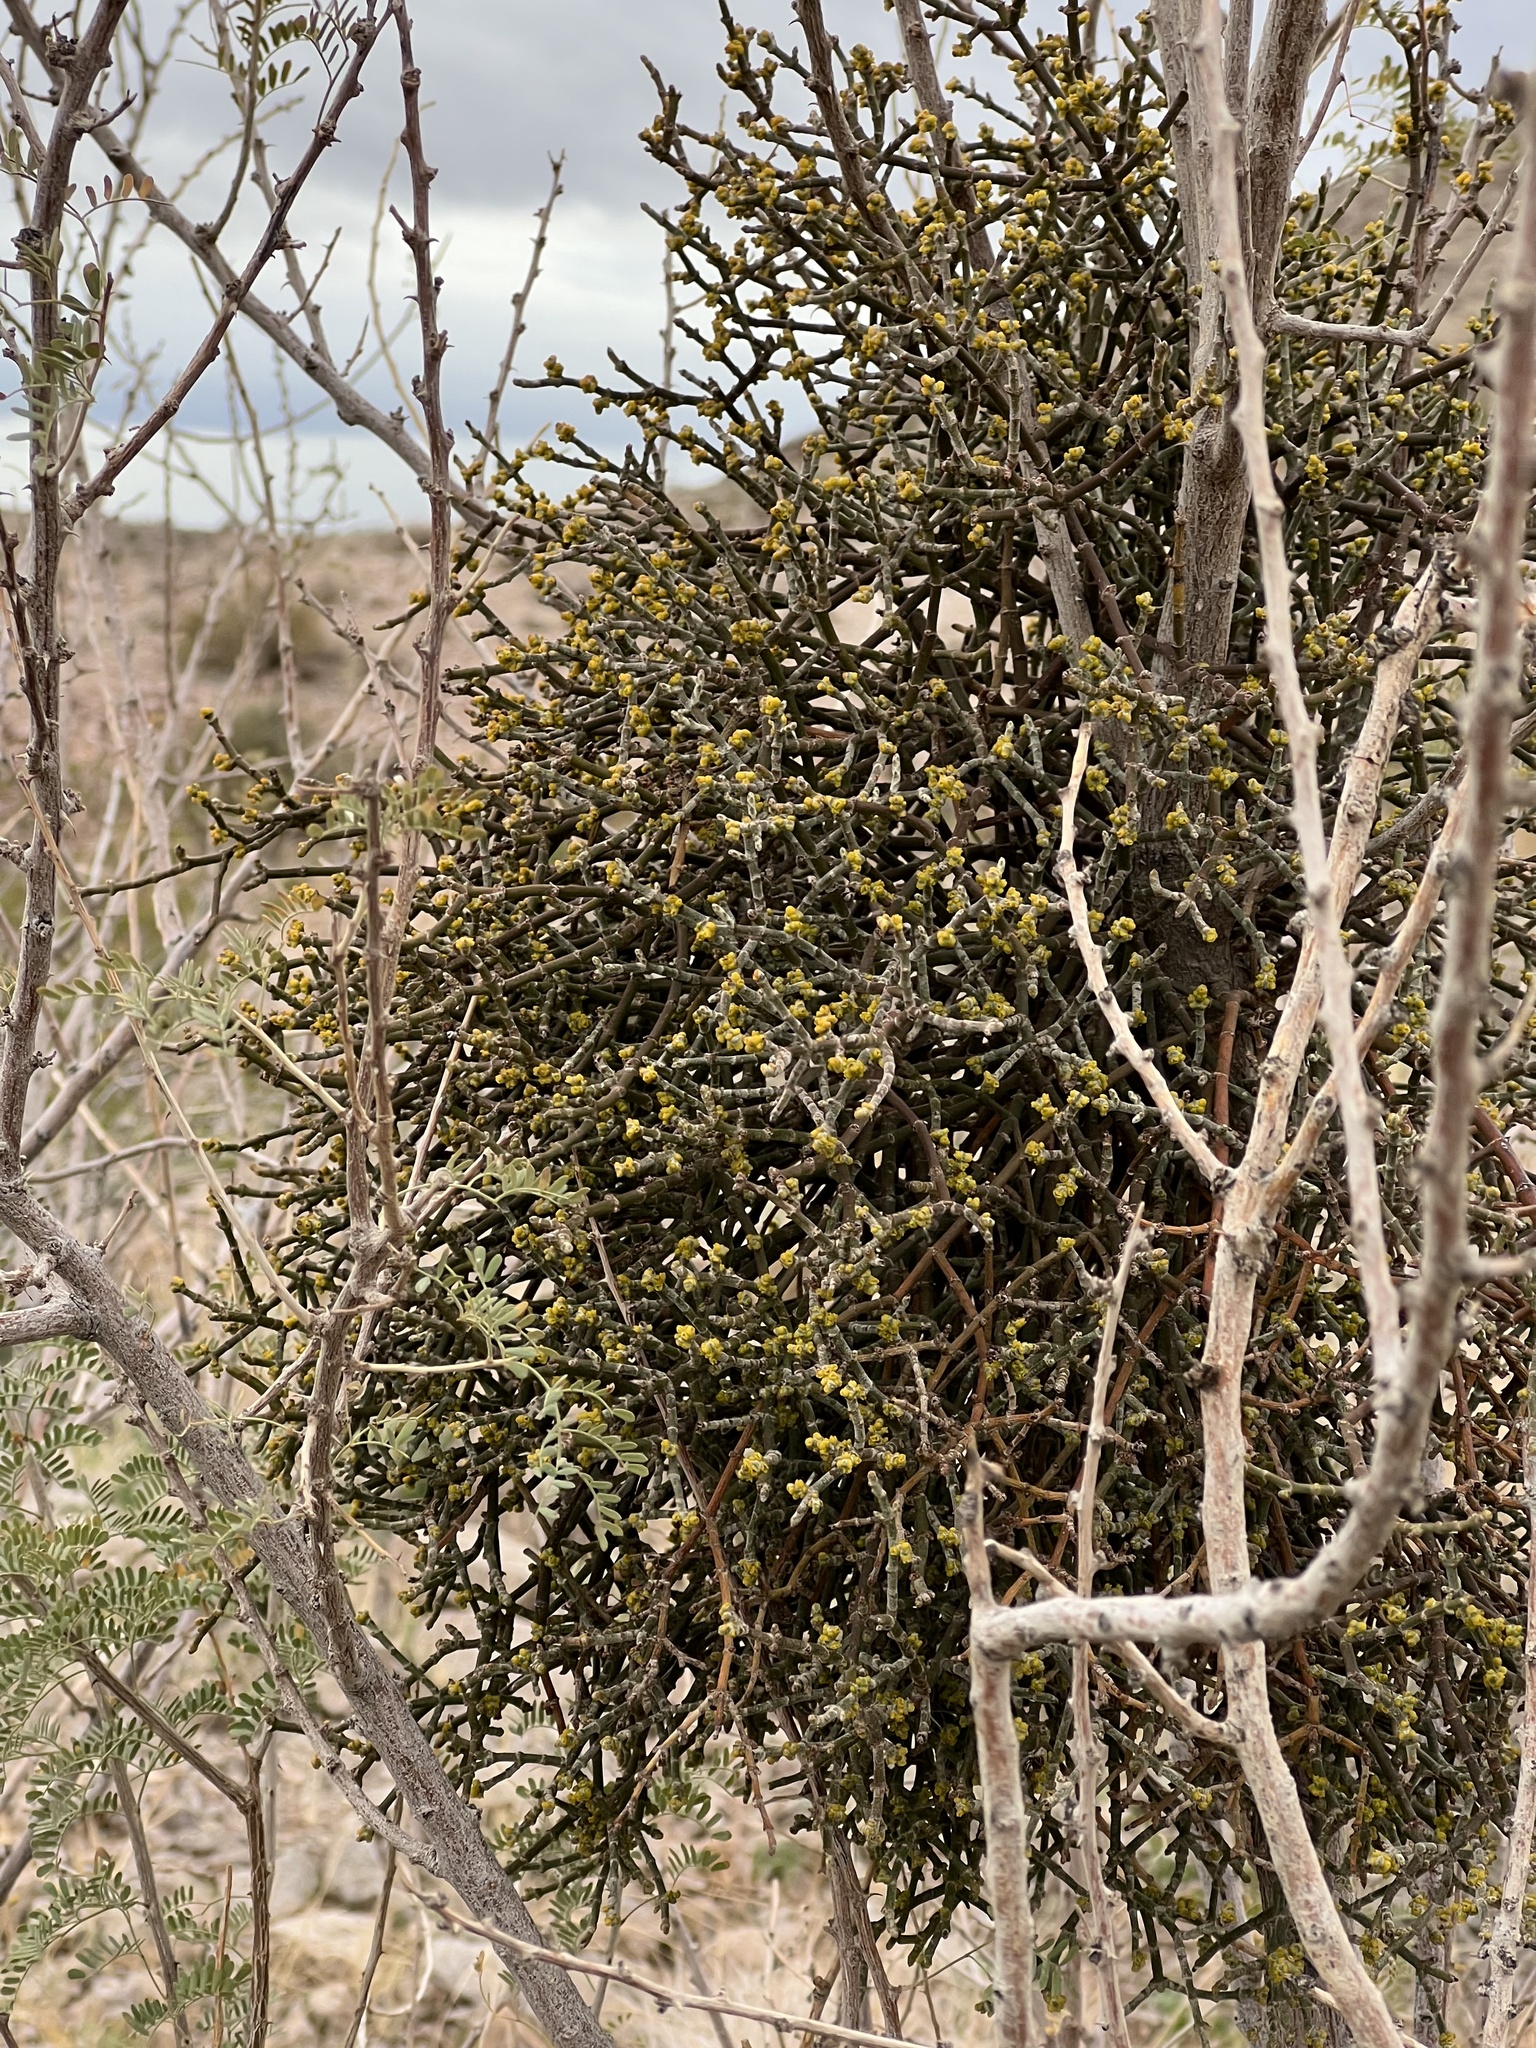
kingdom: Plantae
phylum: Tracheophyta
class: Magnoliopsida
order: Santalales
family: Viscaceae
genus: Phoradendron
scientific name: Phoradendron californicum
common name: Acacia mistletoe
